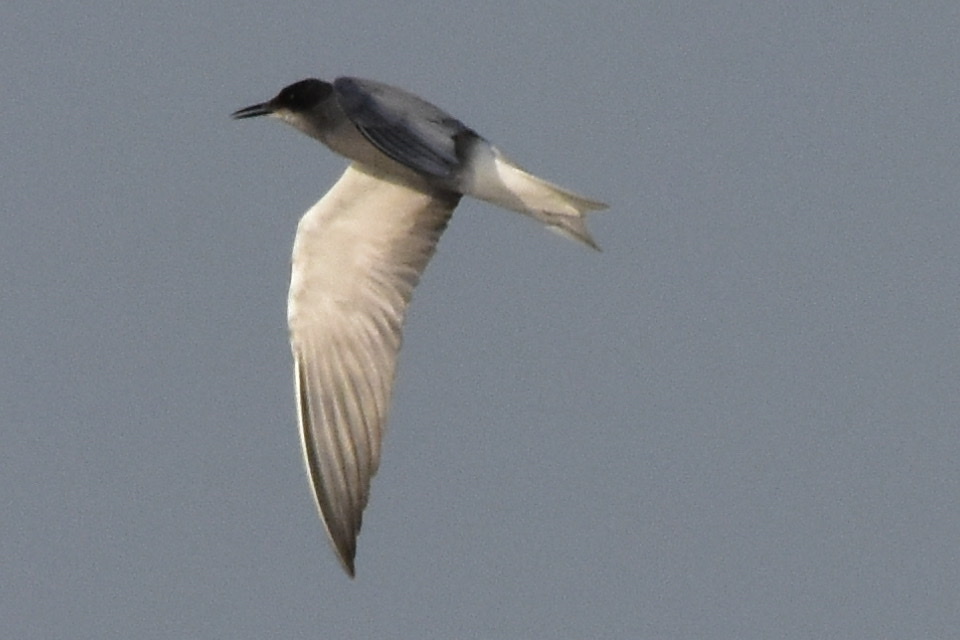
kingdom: Animalia
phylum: Chordata
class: Aves
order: Charadriiformes
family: Laridae
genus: Chlidonias
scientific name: Chlidonias niger
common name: Black tern
